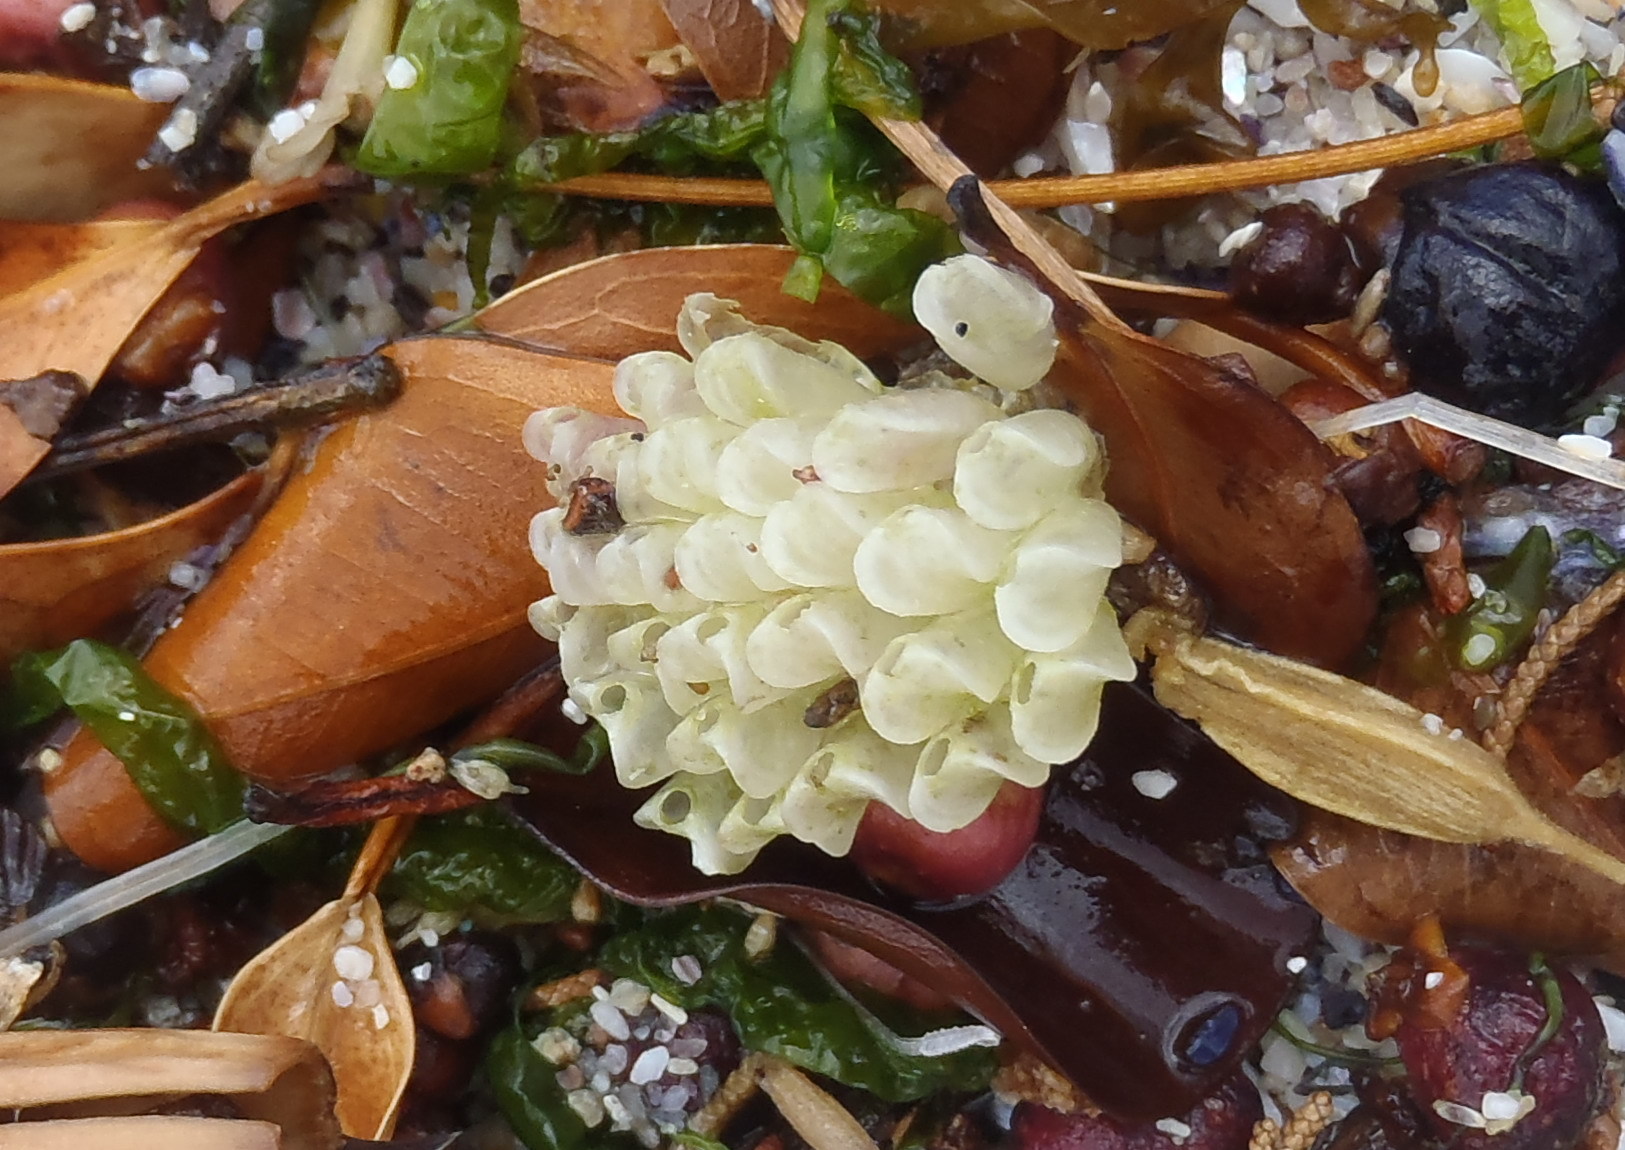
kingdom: Animalia
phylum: Mollusca
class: Gastropoda
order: Neogastropoda
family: Muricidae
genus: Nucella
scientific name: Nucella squamosa
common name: Scaly dogwhelk
